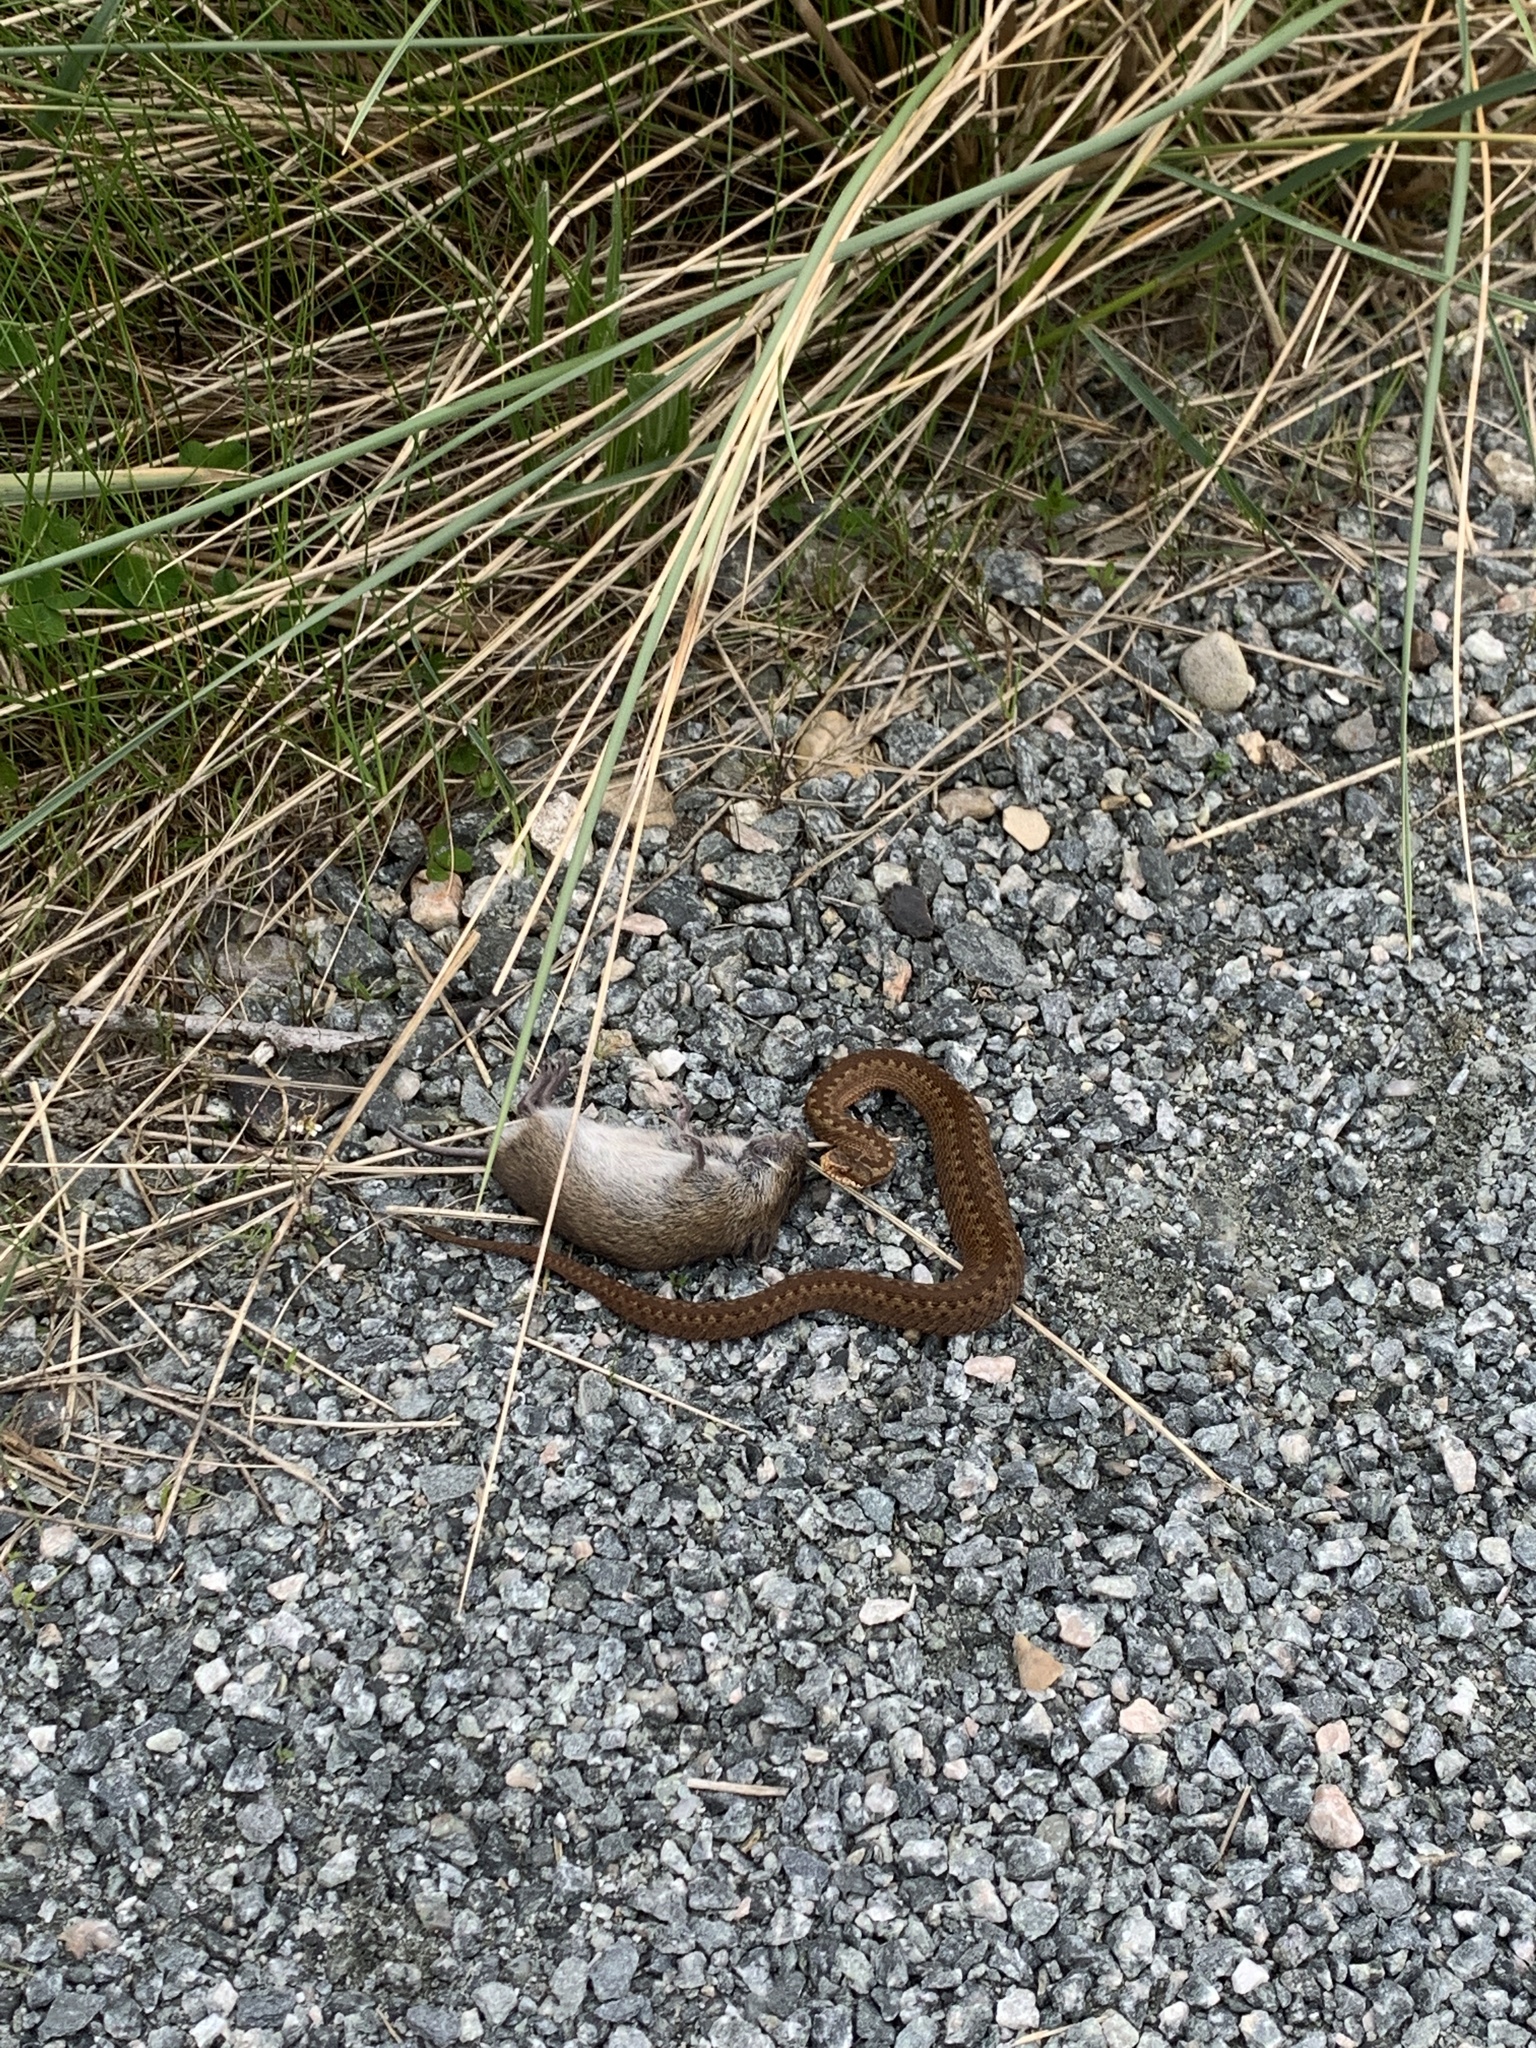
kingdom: Animalia
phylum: Chordata
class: Squamata
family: Viperidae
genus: Vipera
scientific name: Vipera berus
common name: Adder
